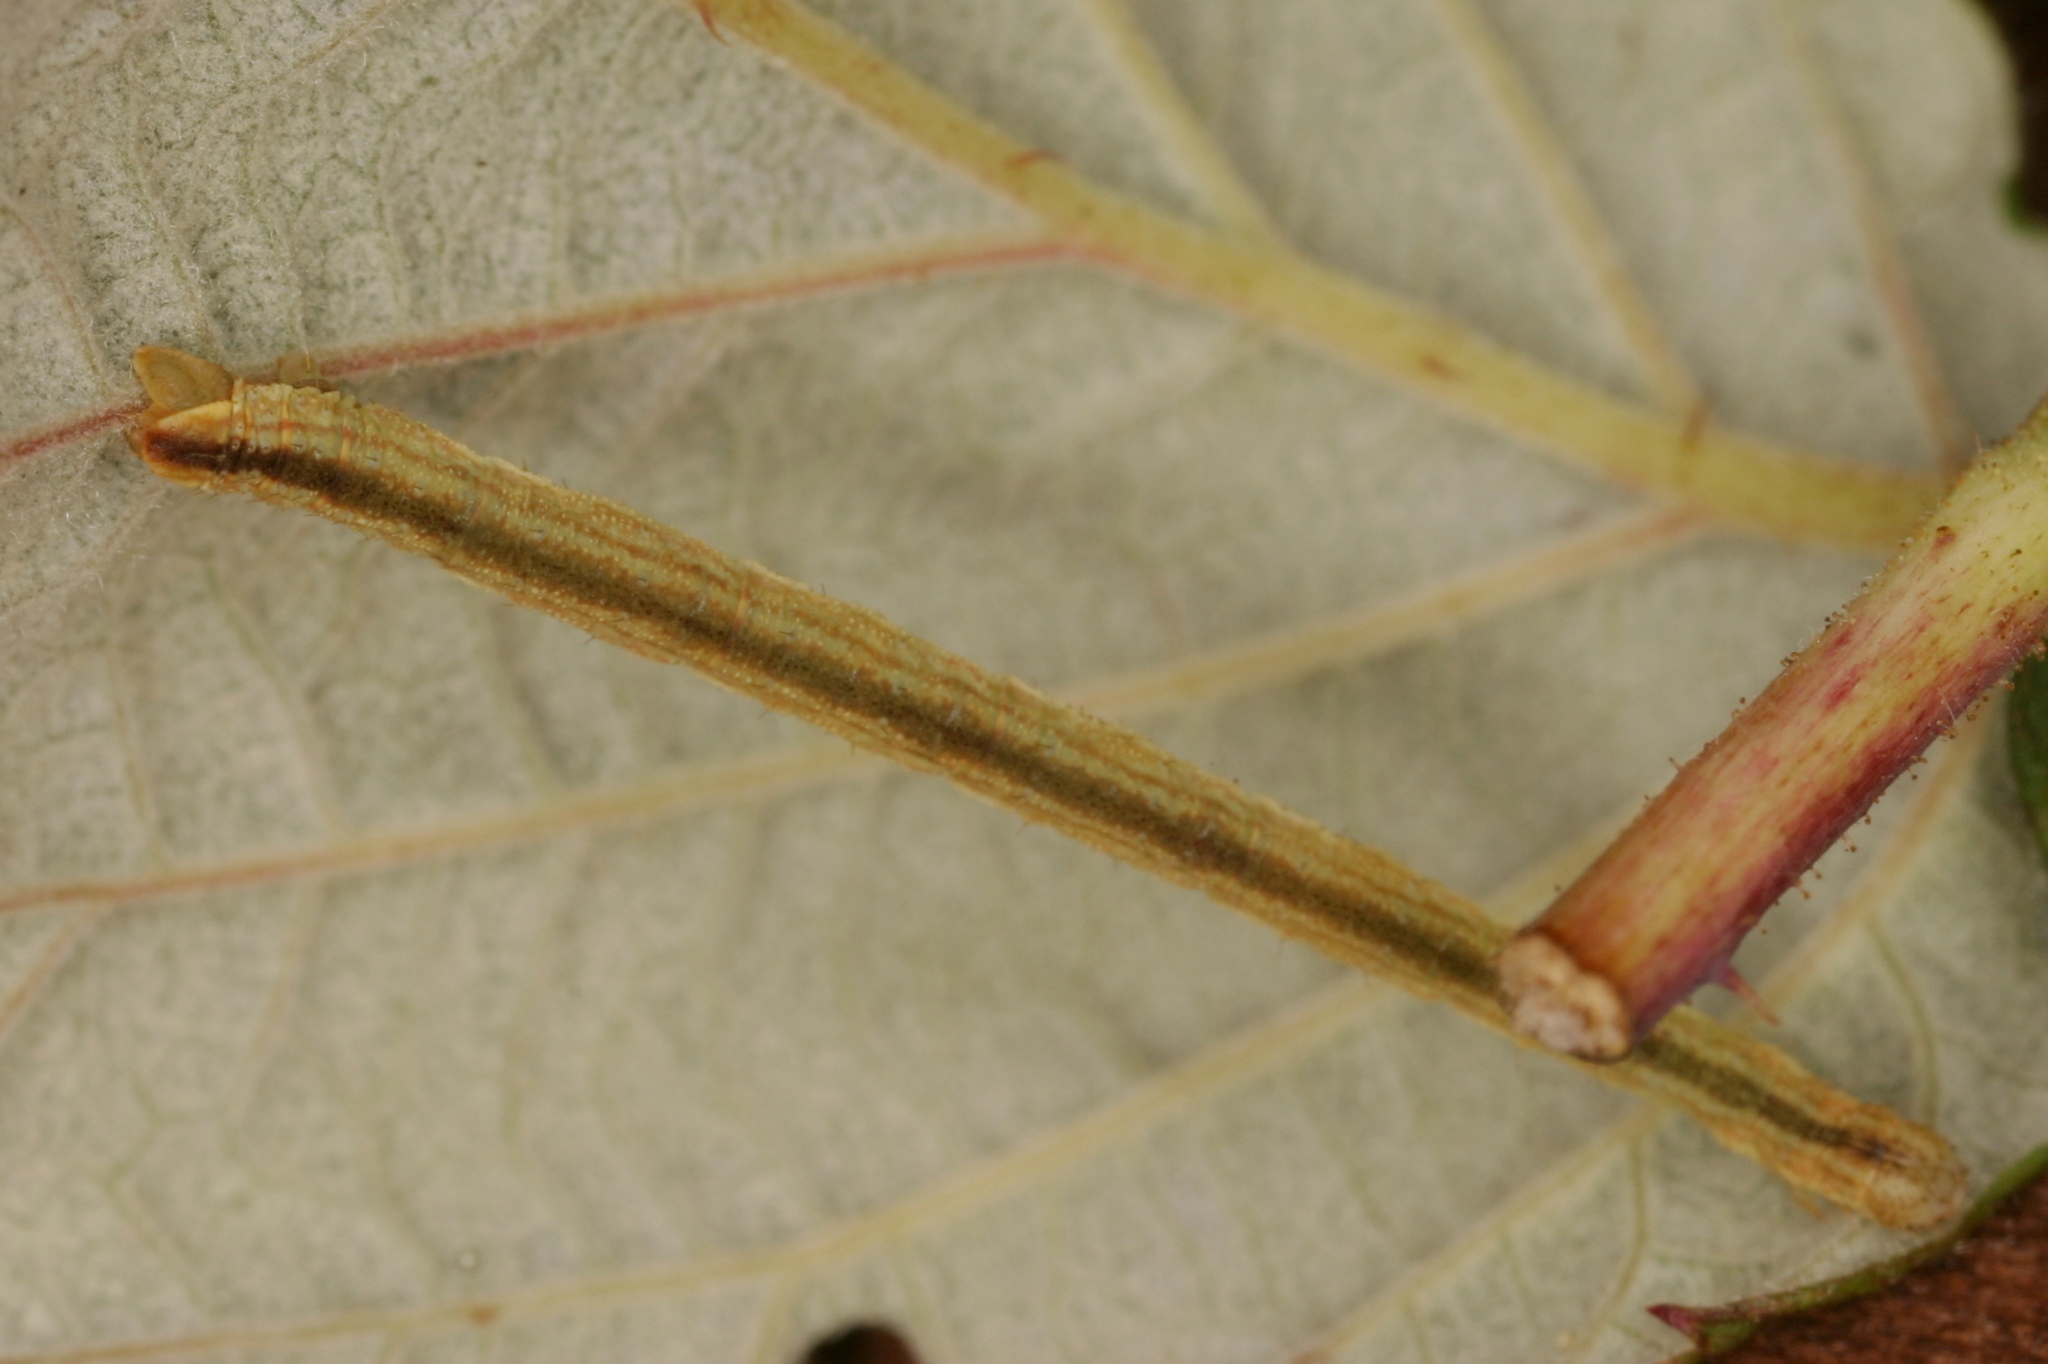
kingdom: Animalia
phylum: Arthropoda
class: Insecta
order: Lepidoptera
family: Geometridae
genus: Eupithecia
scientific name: Eupithecia subumbrata
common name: Shaded pug
